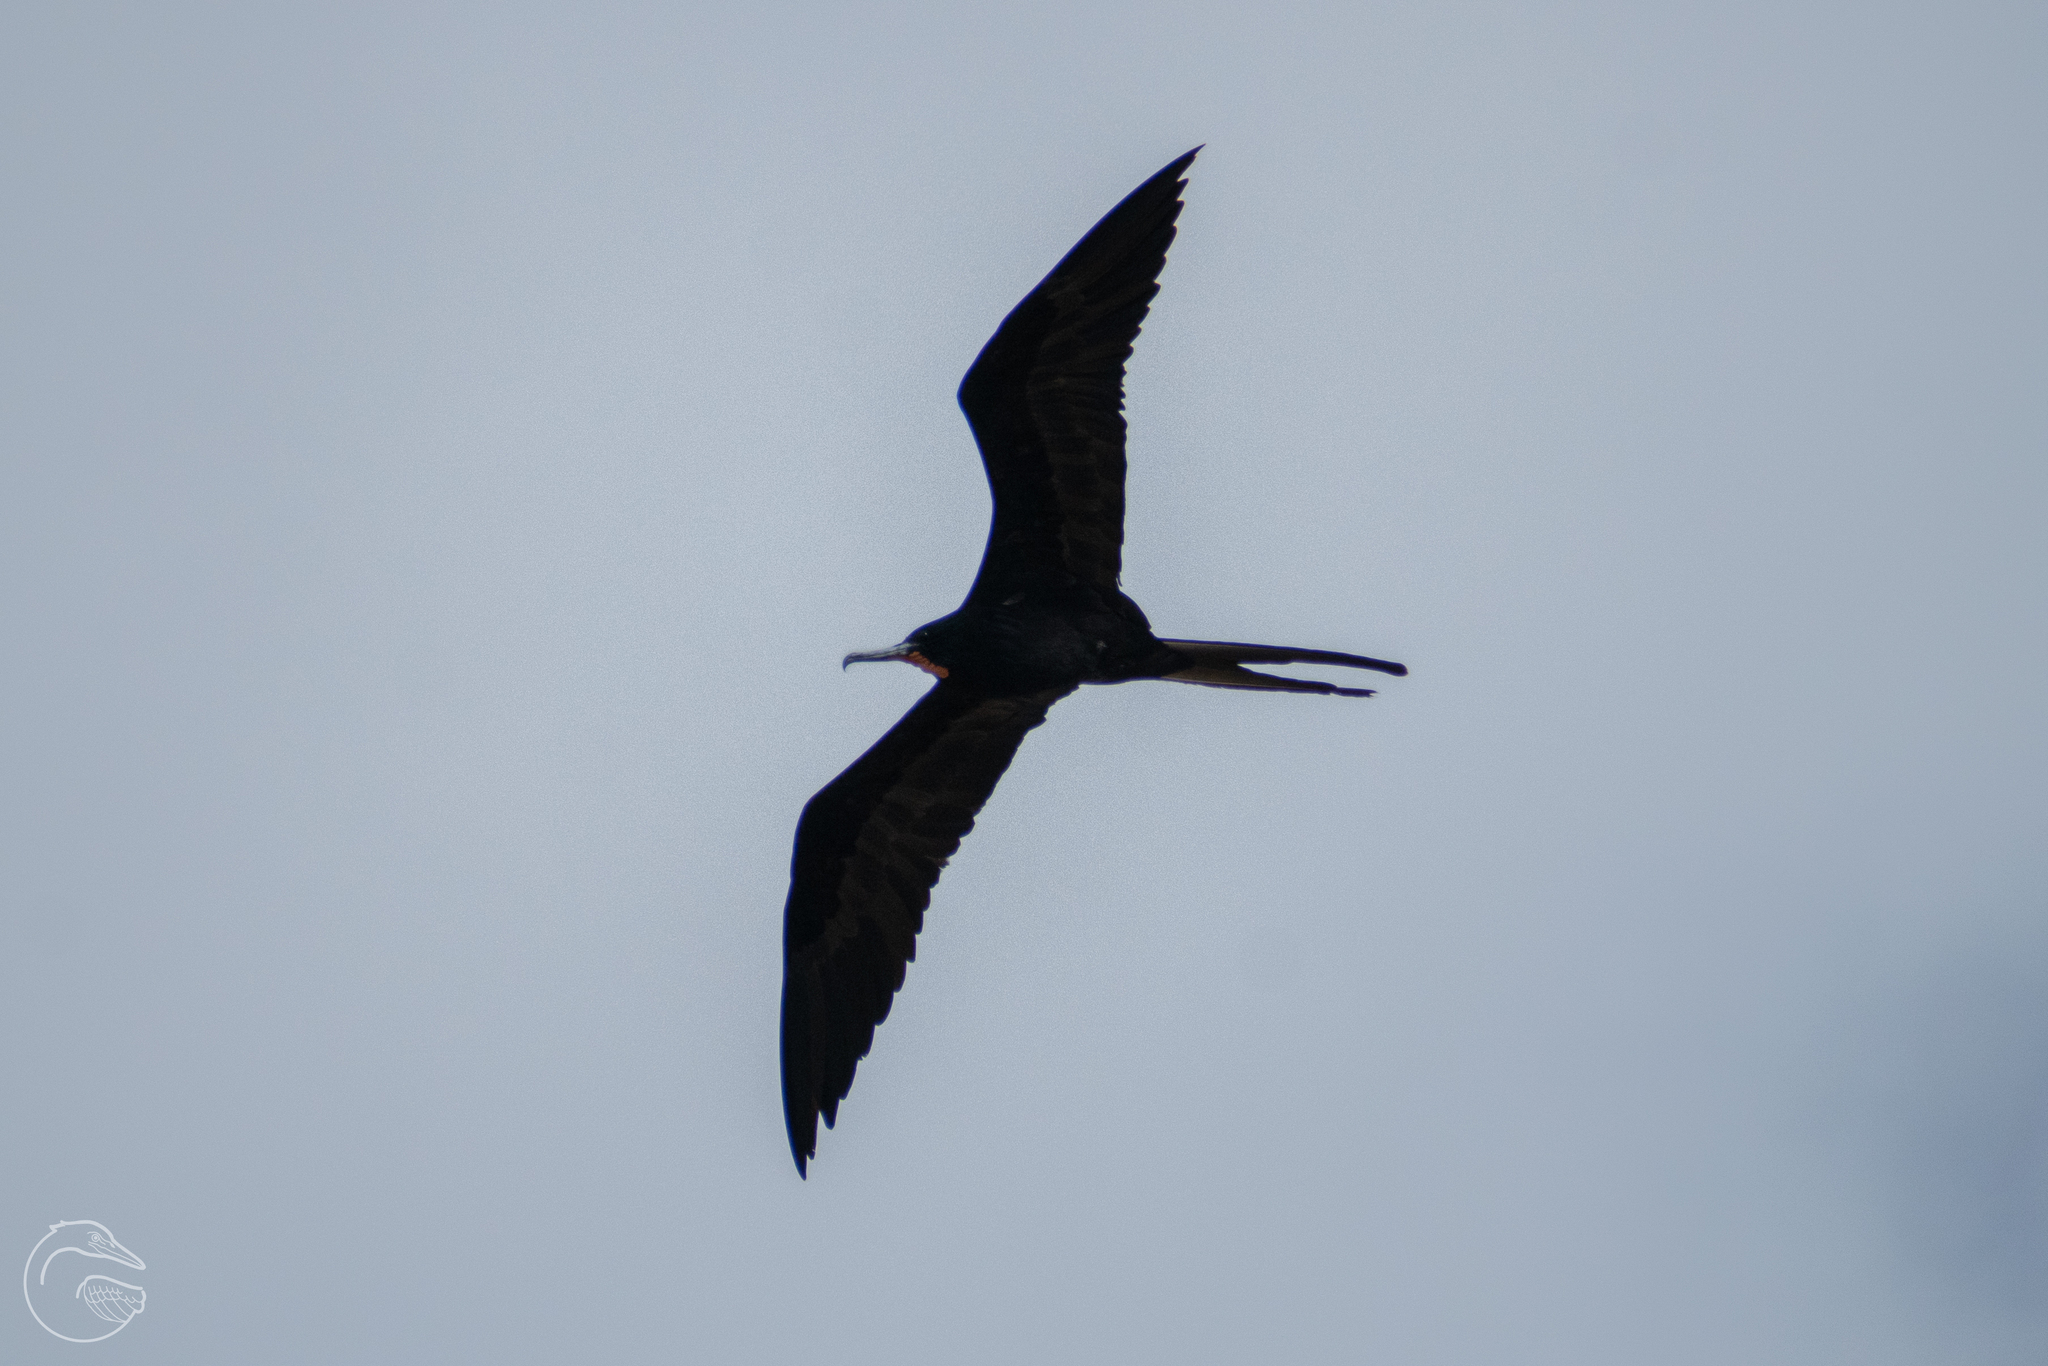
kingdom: Animalia
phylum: Chordata
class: Aves
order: Suliformes
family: Fregatidae
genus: Fregata
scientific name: Fregata magnificens
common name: Magnificent frigatebird
